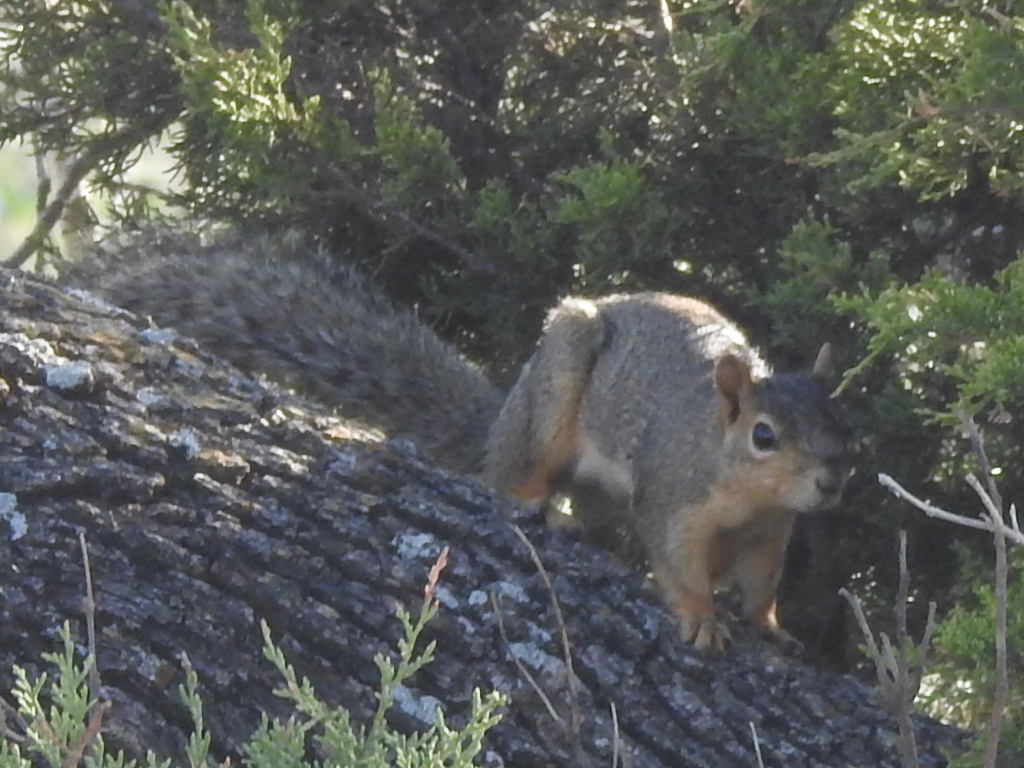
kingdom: Animalia
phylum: Chordata
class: Mammalia
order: Rodentia
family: Sciuridae
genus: Sciurus
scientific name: Sciurus niger
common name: Fox squirrel
